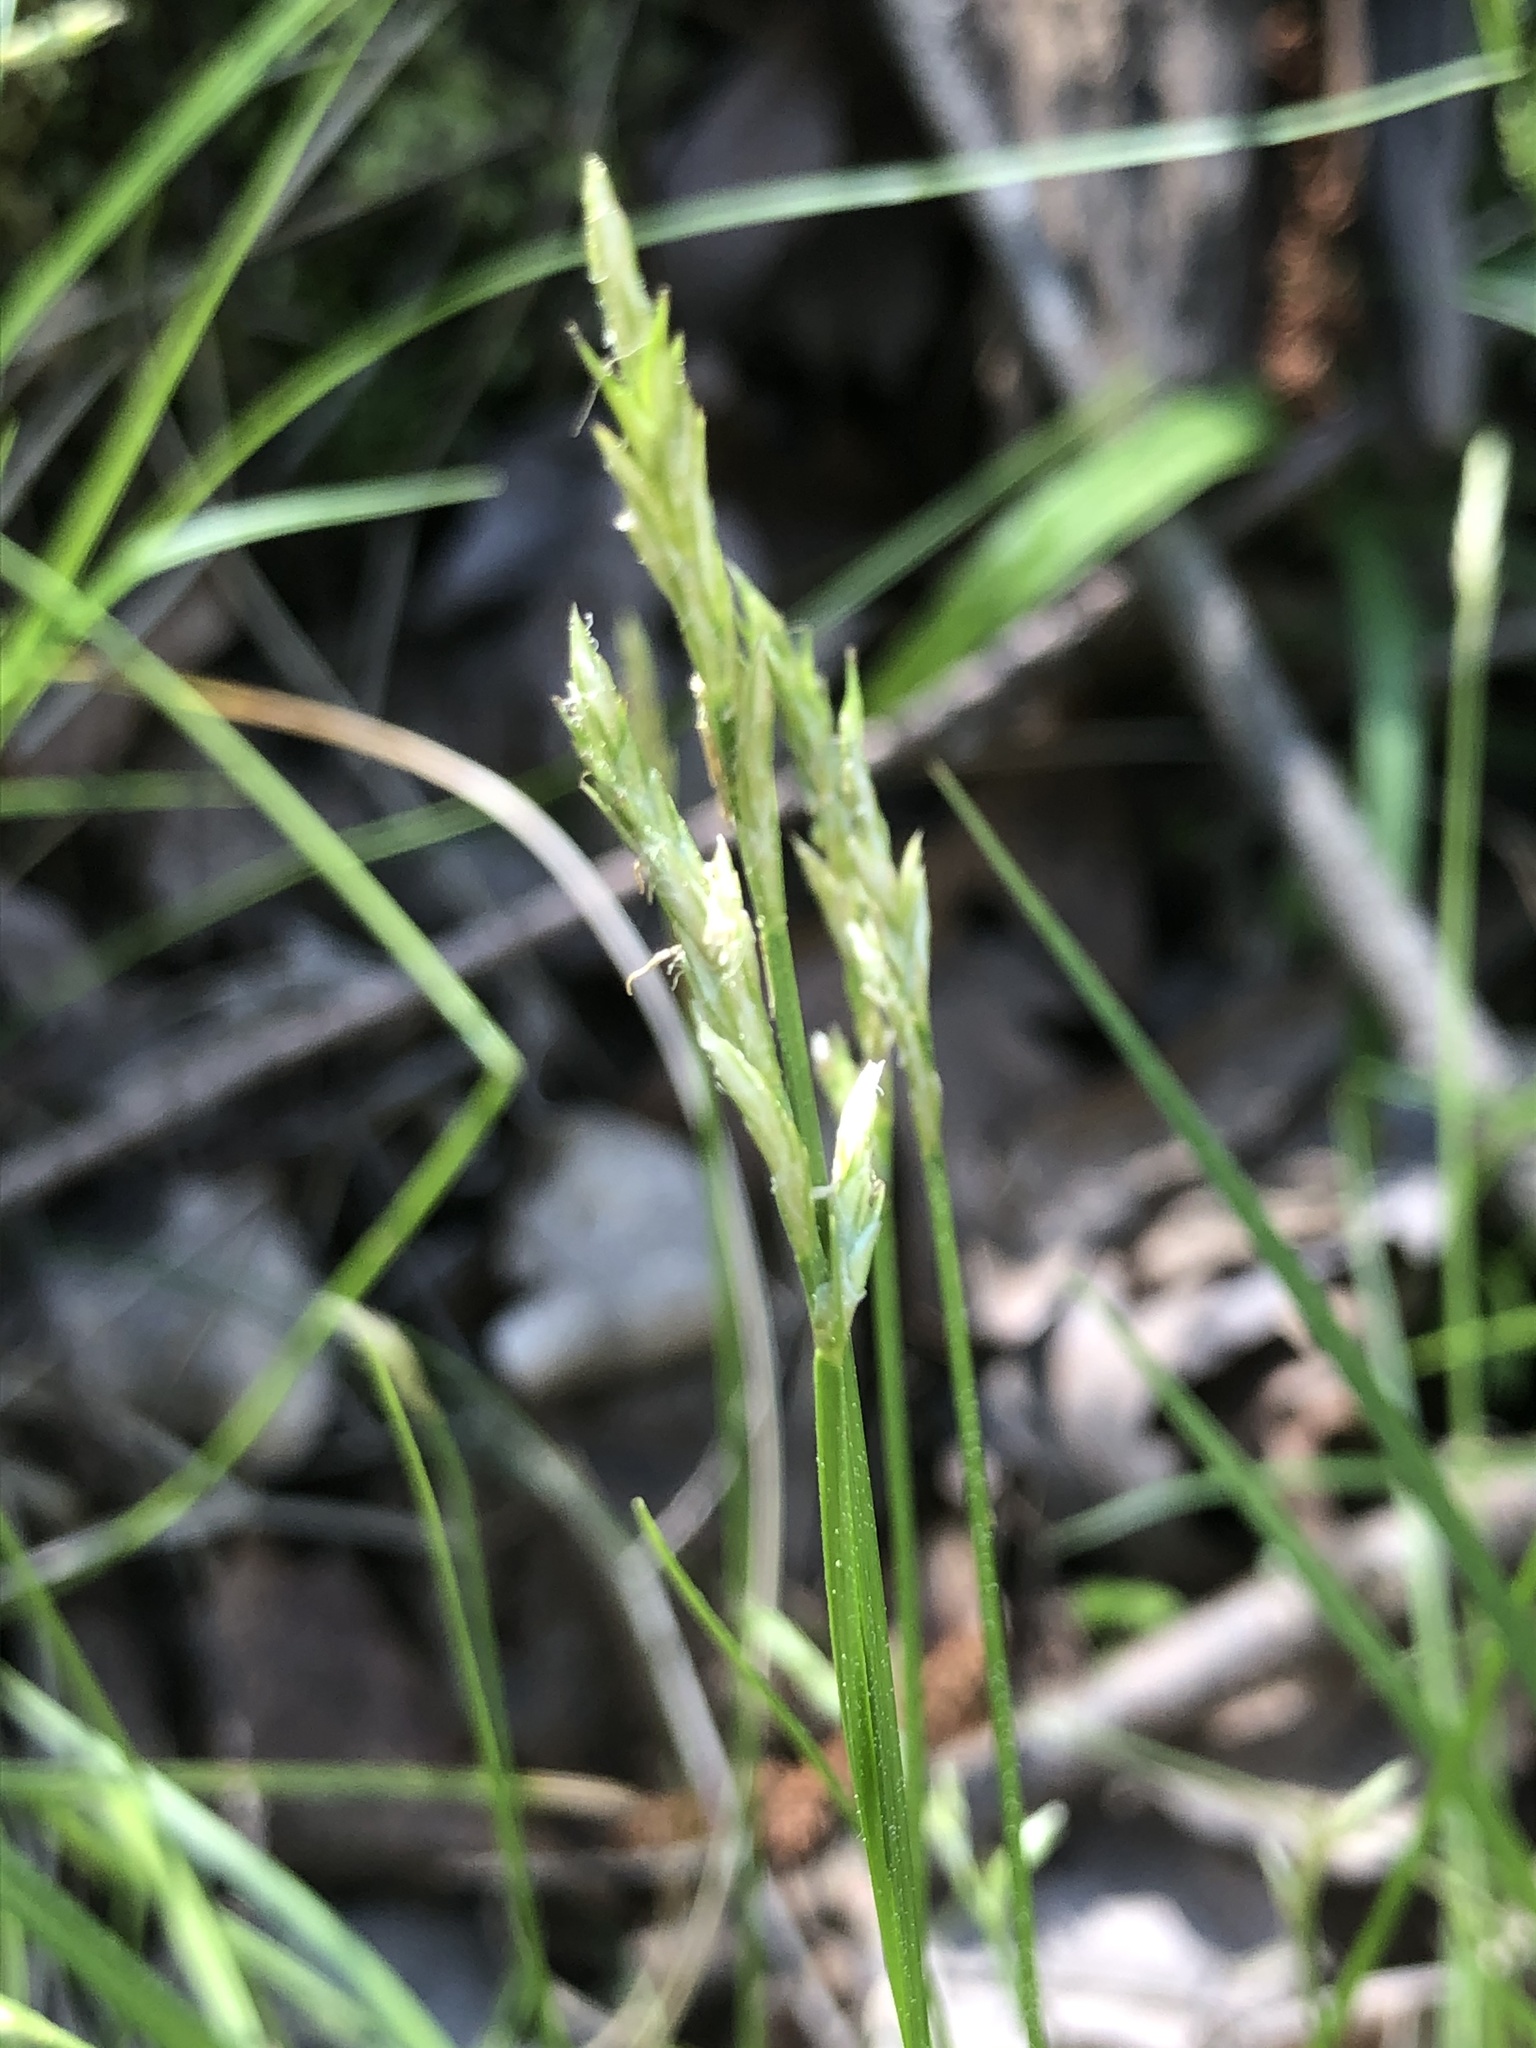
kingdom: Plantae
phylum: Tracheophyta
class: Liliopsida
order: Poales
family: Cyperaceae
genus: Carex
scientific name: Carex bromoides
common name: Brome hummock sedge
